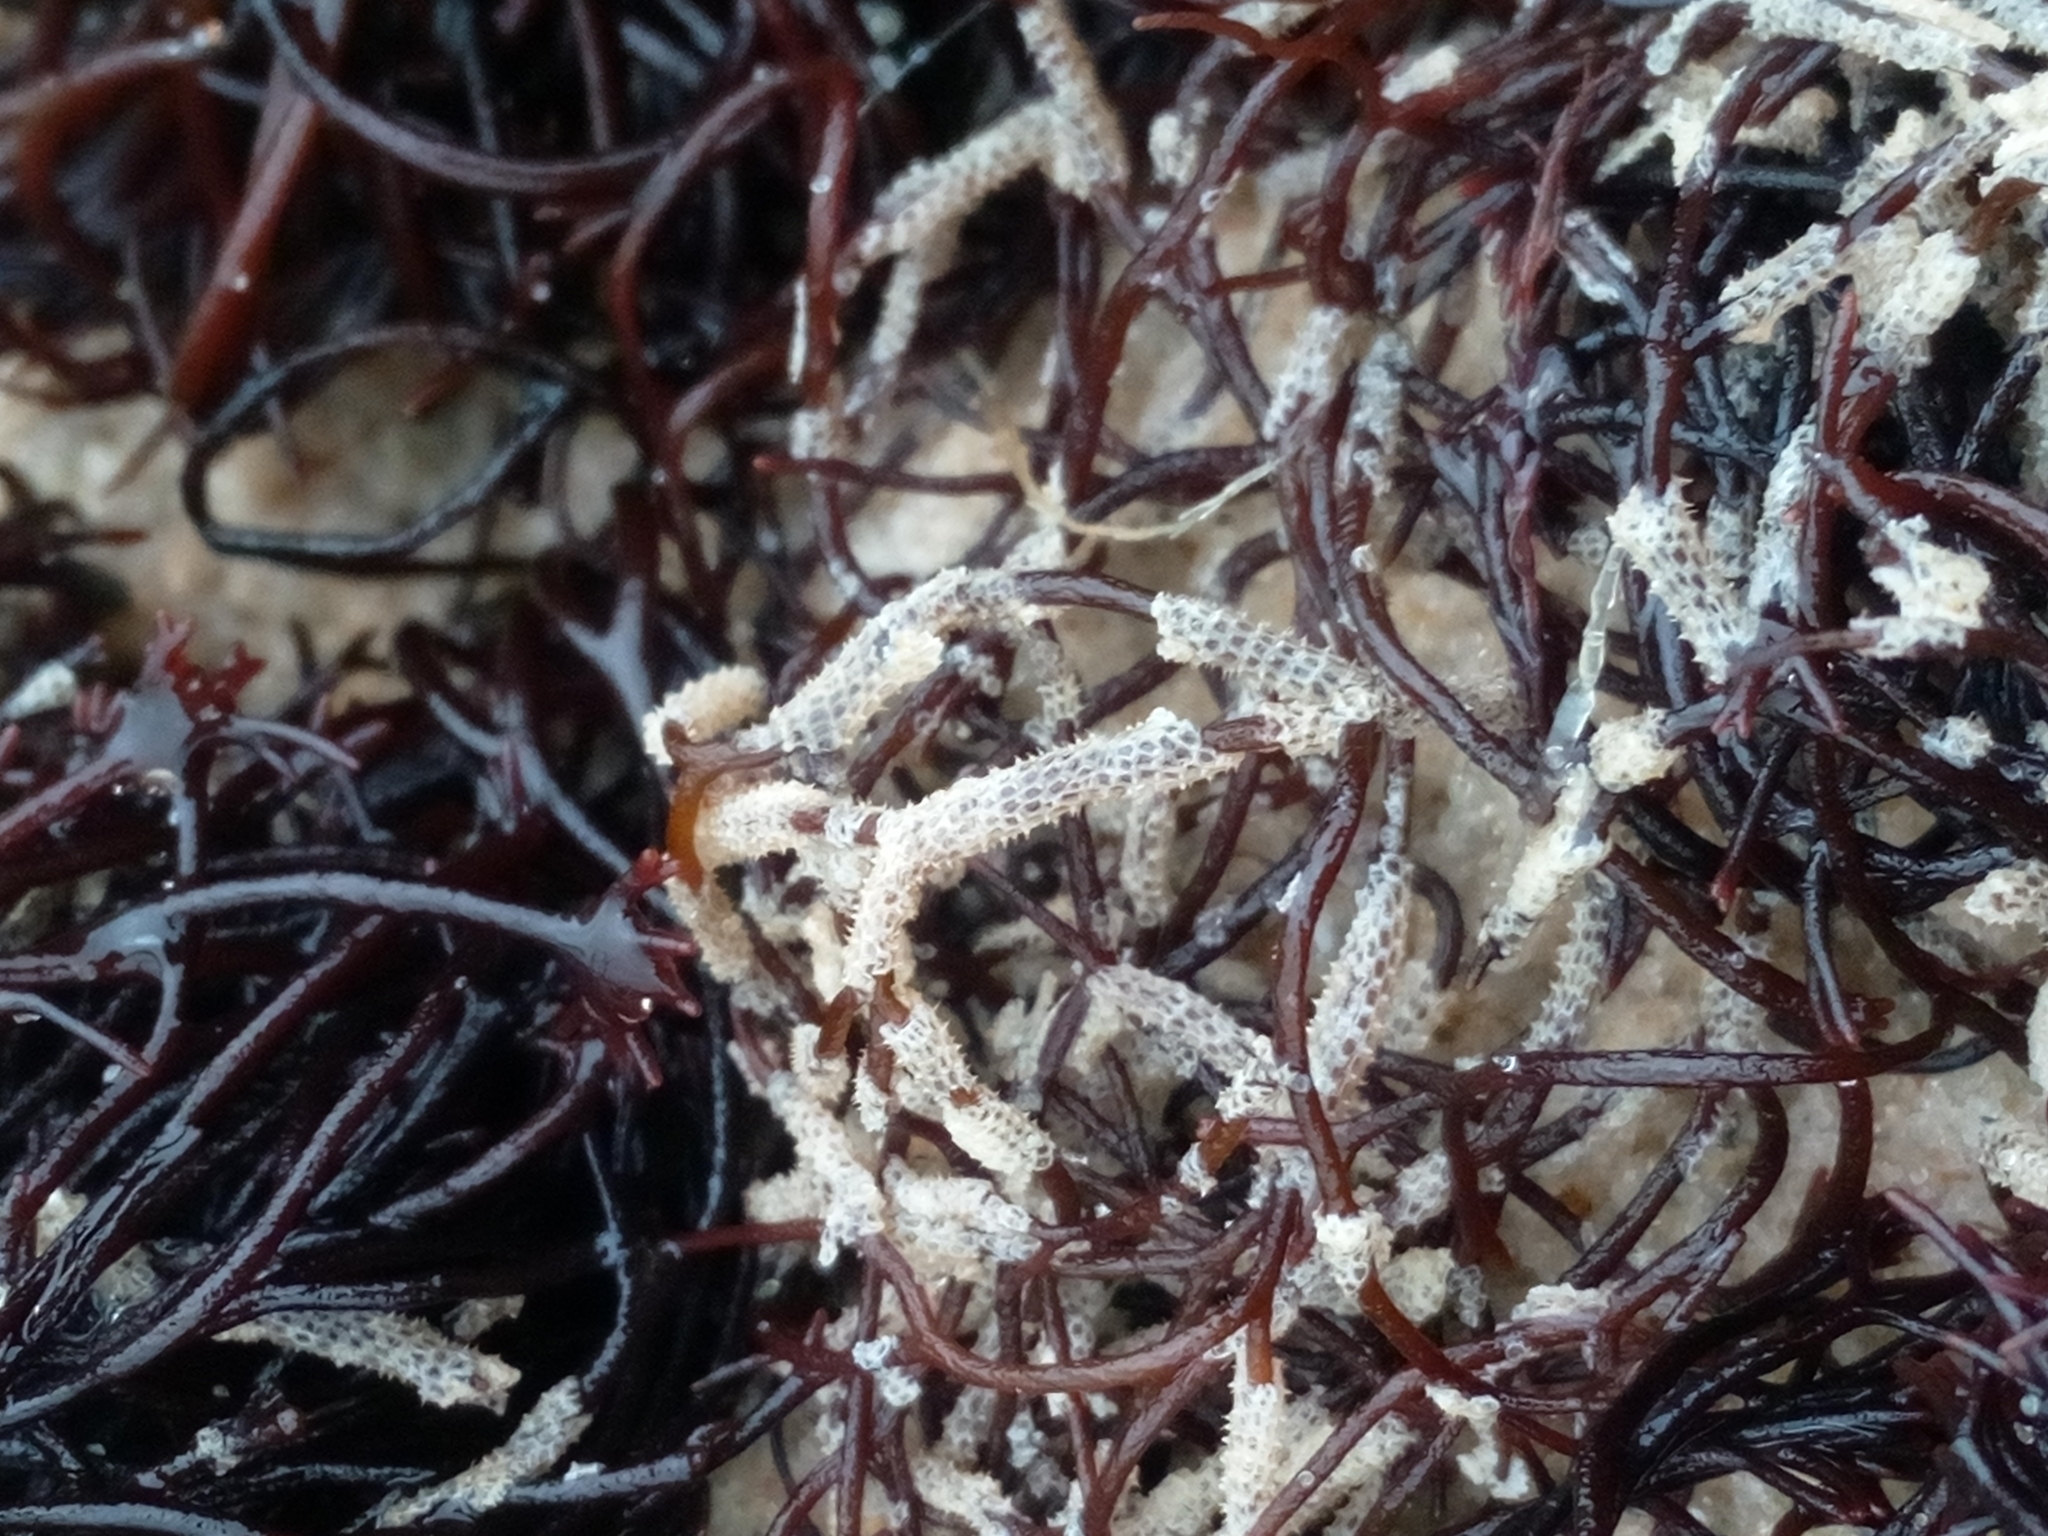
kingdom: Animalia
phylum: Bryozoa
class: Gymnolaemata
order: Cheilostomatida
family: Electridae
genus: Electra
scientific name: Electra pilosa
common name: Hairy sea-mat
